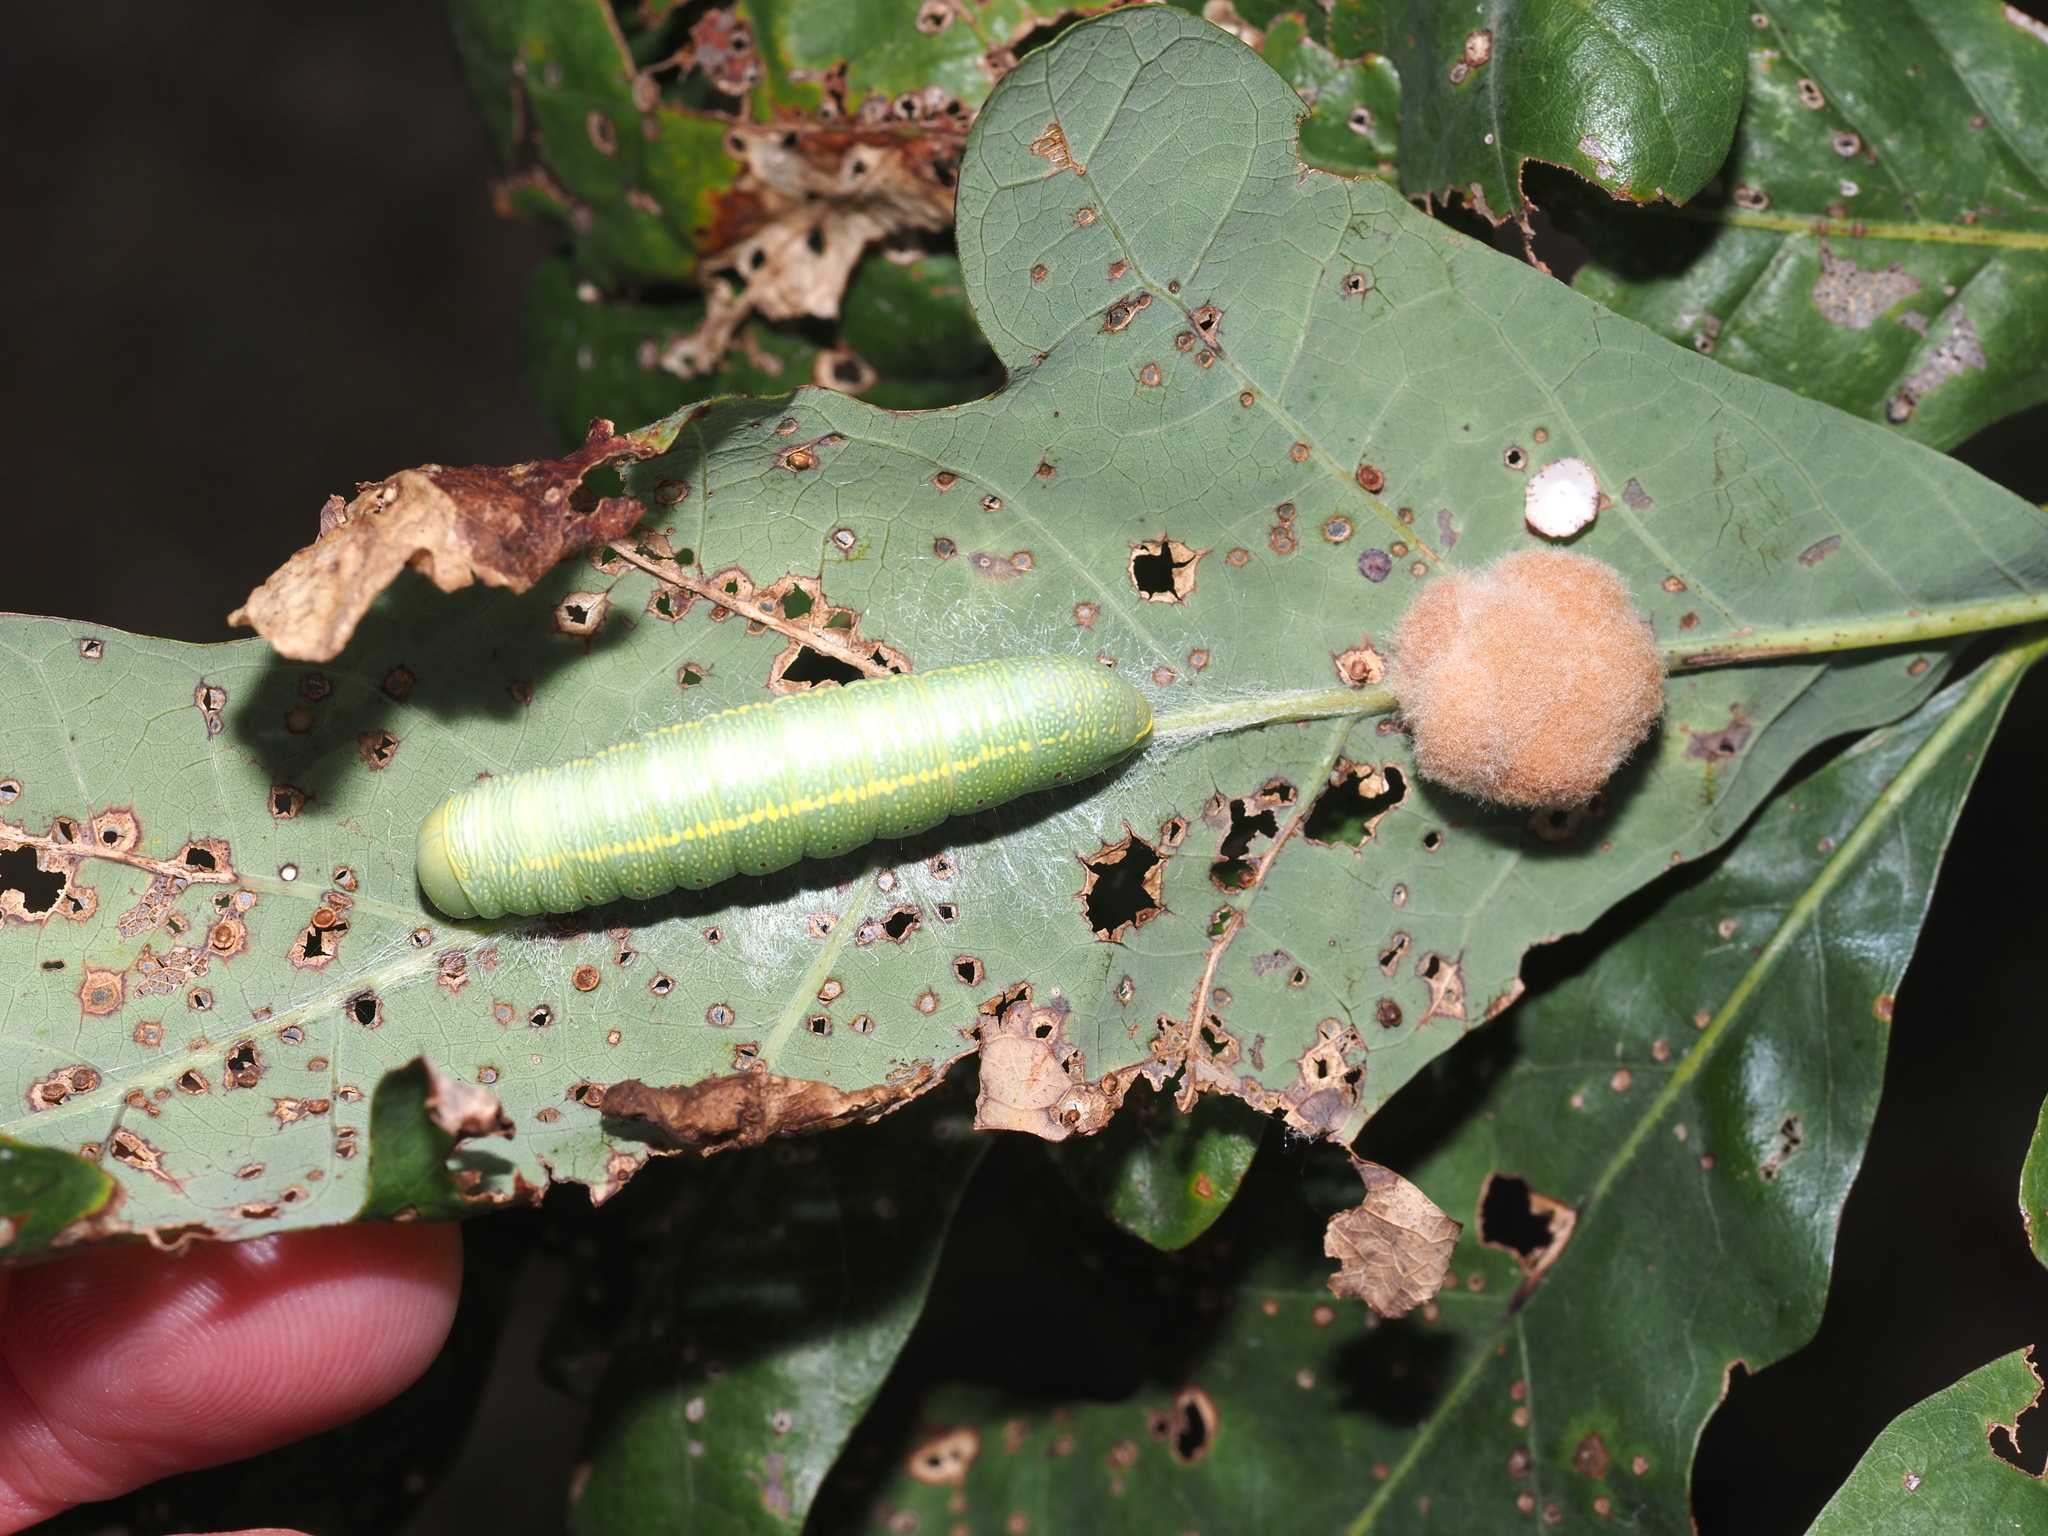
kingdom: Plantae
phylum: Tracheophyta
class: Magnoliopsida
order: Fagales
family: Fagaceae
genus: Quercus
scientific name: Quercus alba
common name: White oak
